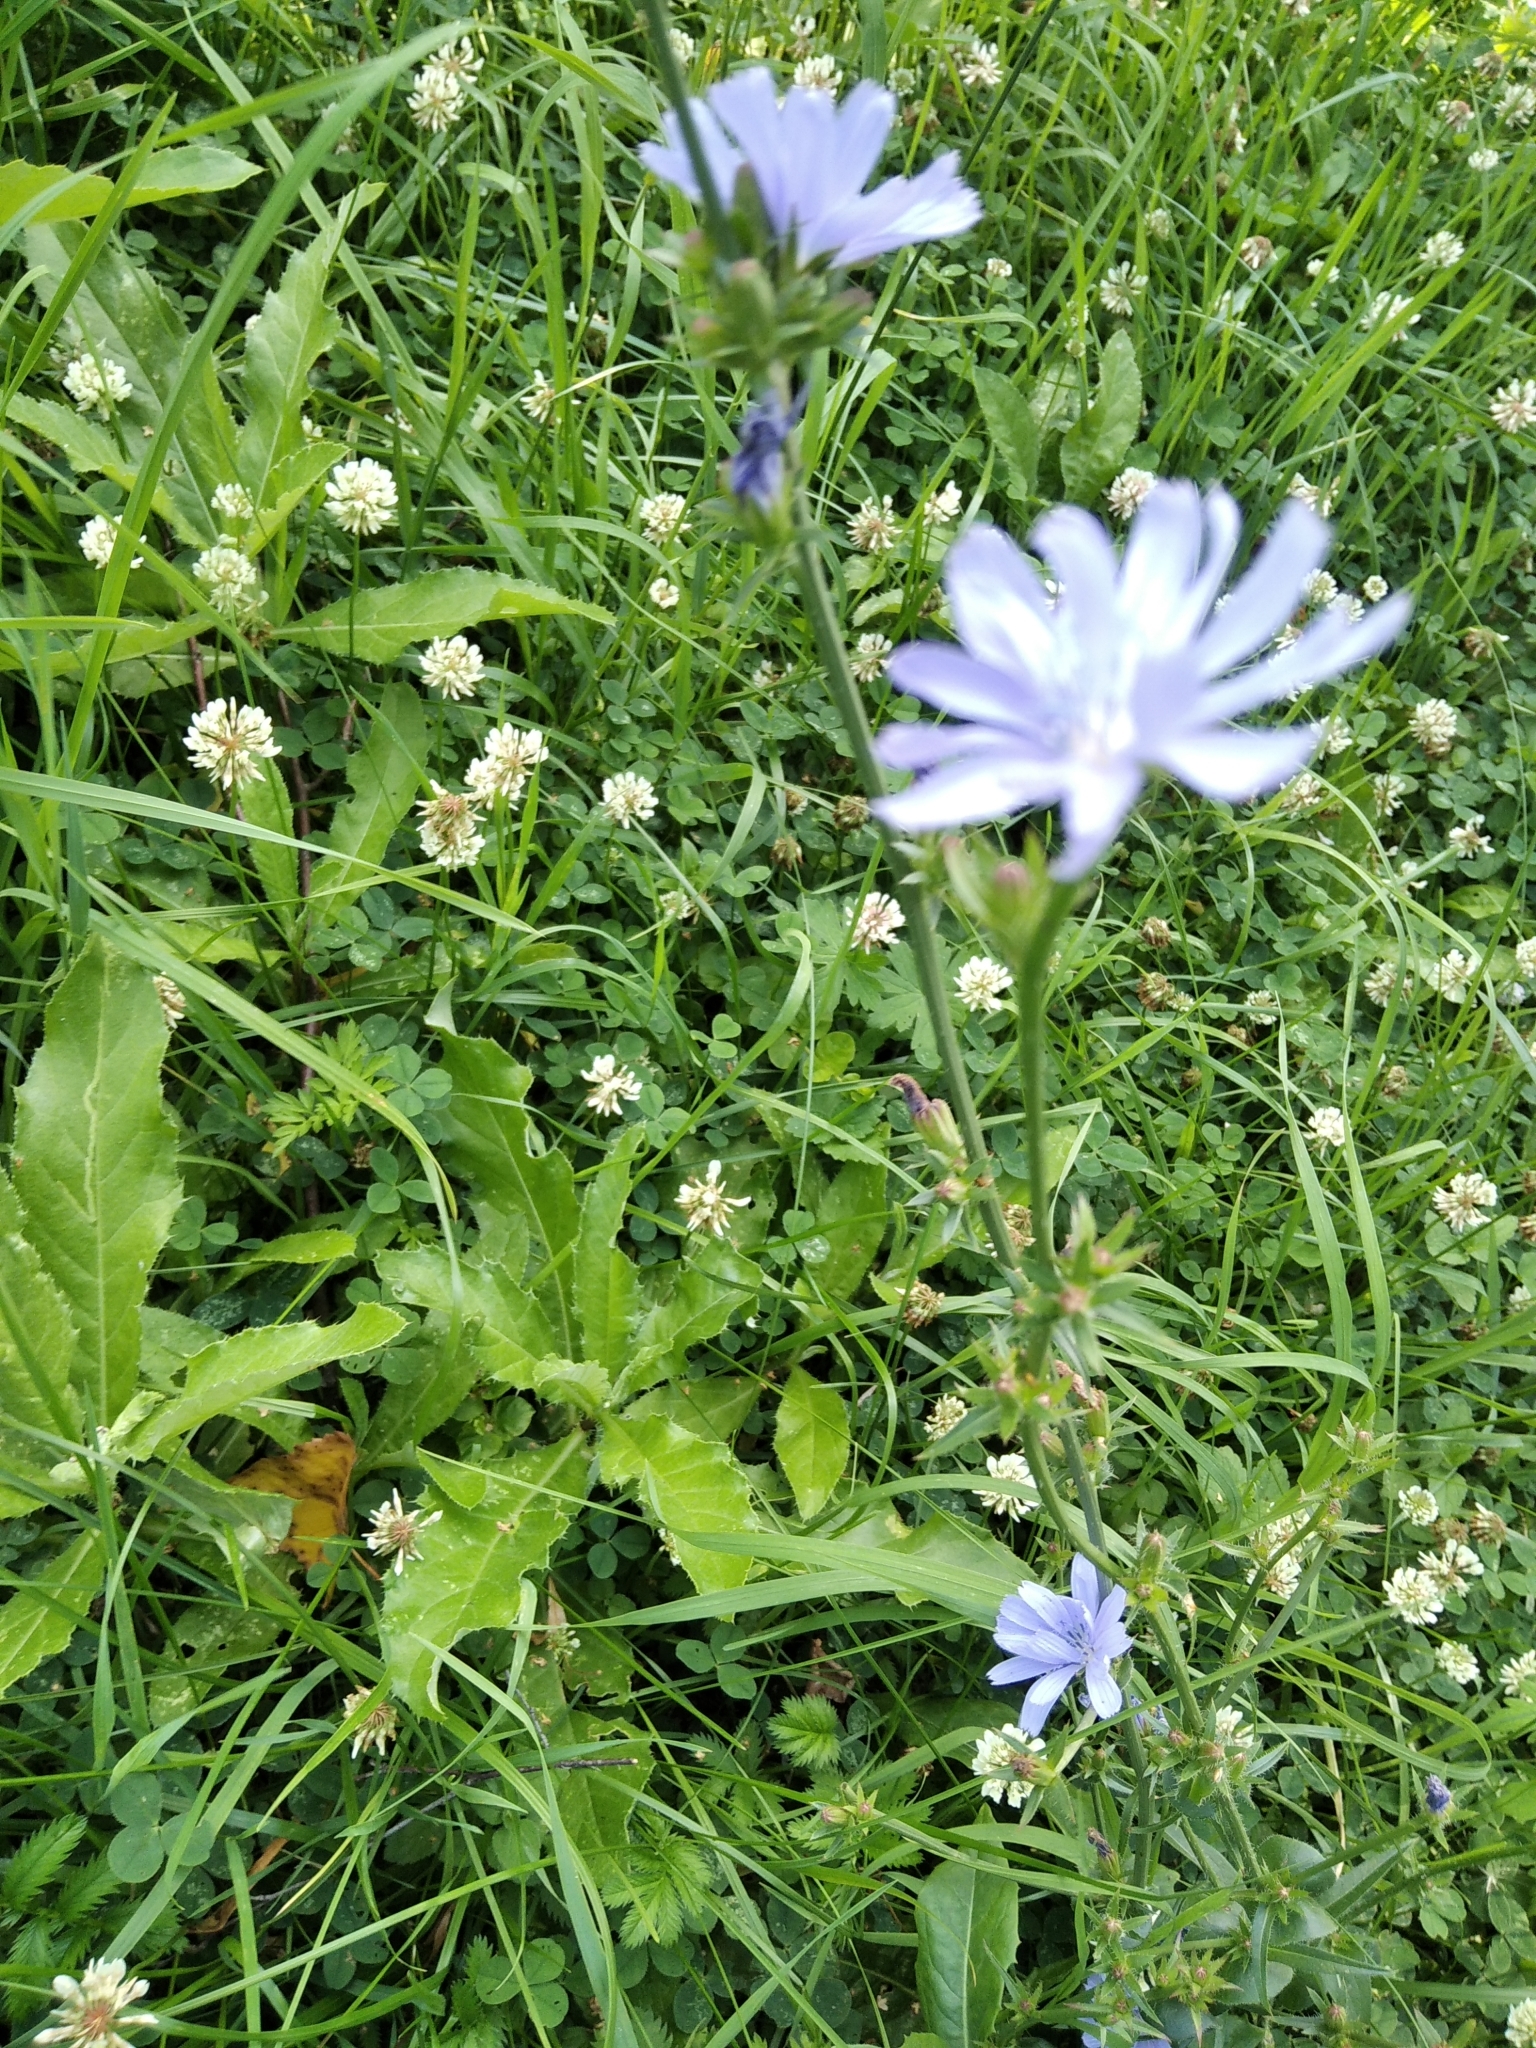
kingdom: Plantae
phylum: Tracheophyta
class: Magnoliopsida
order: Asterales
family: Asteraceae
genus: Cichorium
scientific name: Cichorium intybus
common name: Chicory
